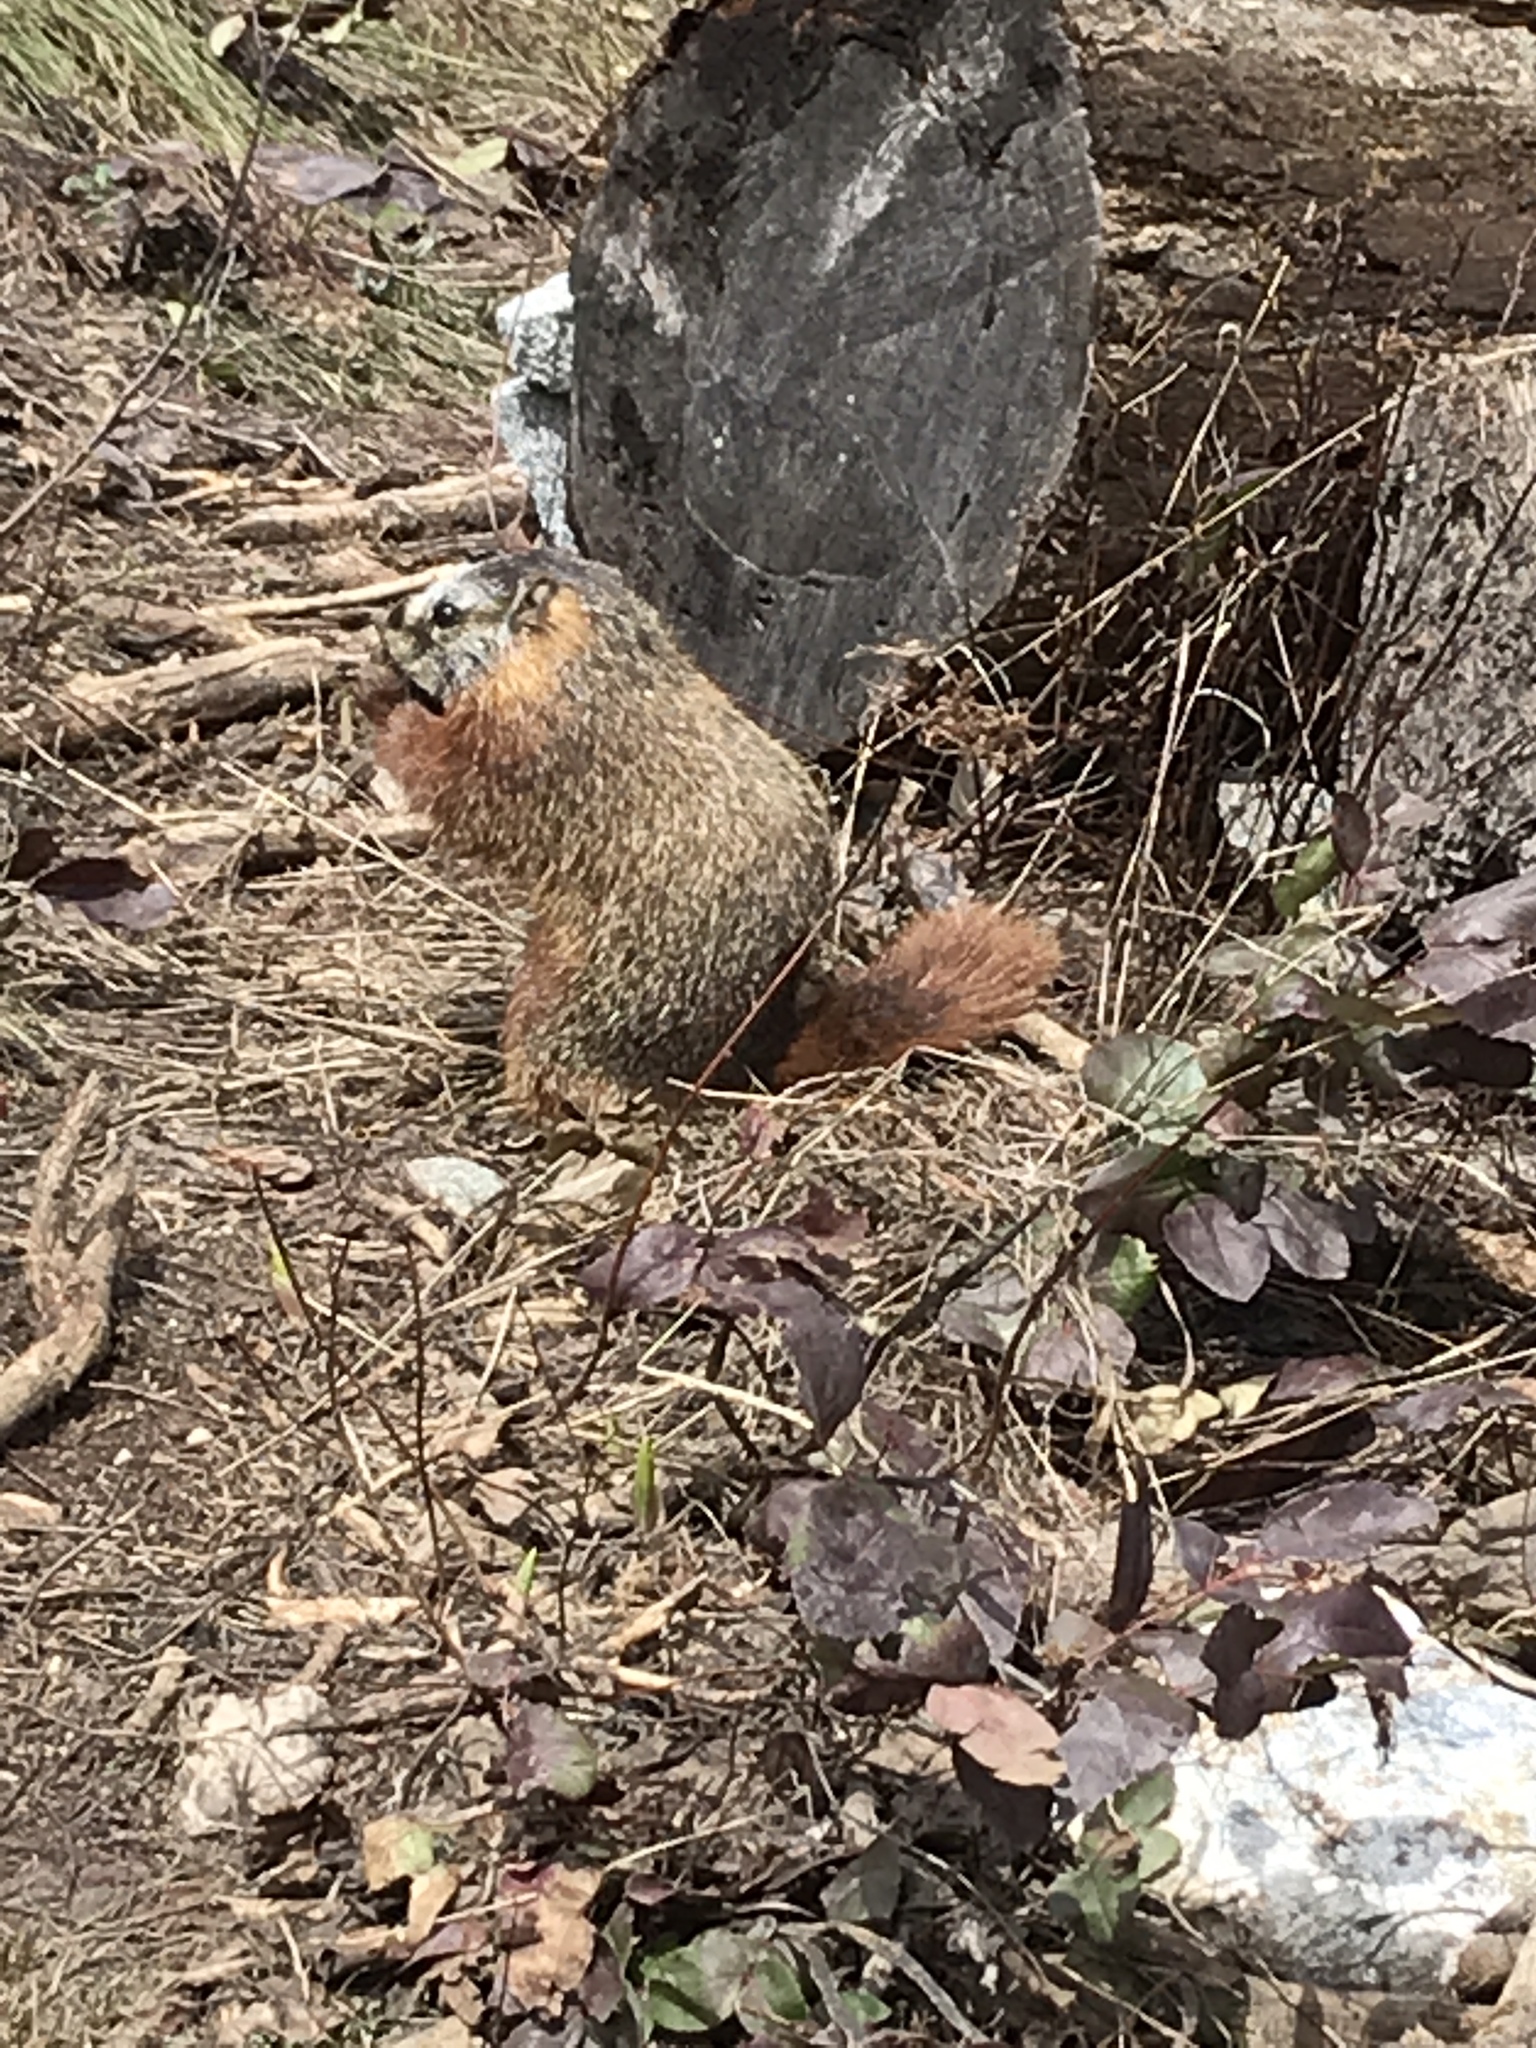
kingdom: Animalia
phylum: Chordata
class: Mammalia
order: Rodentia
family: Sciuridae
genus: Marmota
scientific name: Marmota flaviventris
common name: Yellow-bellied marmot
